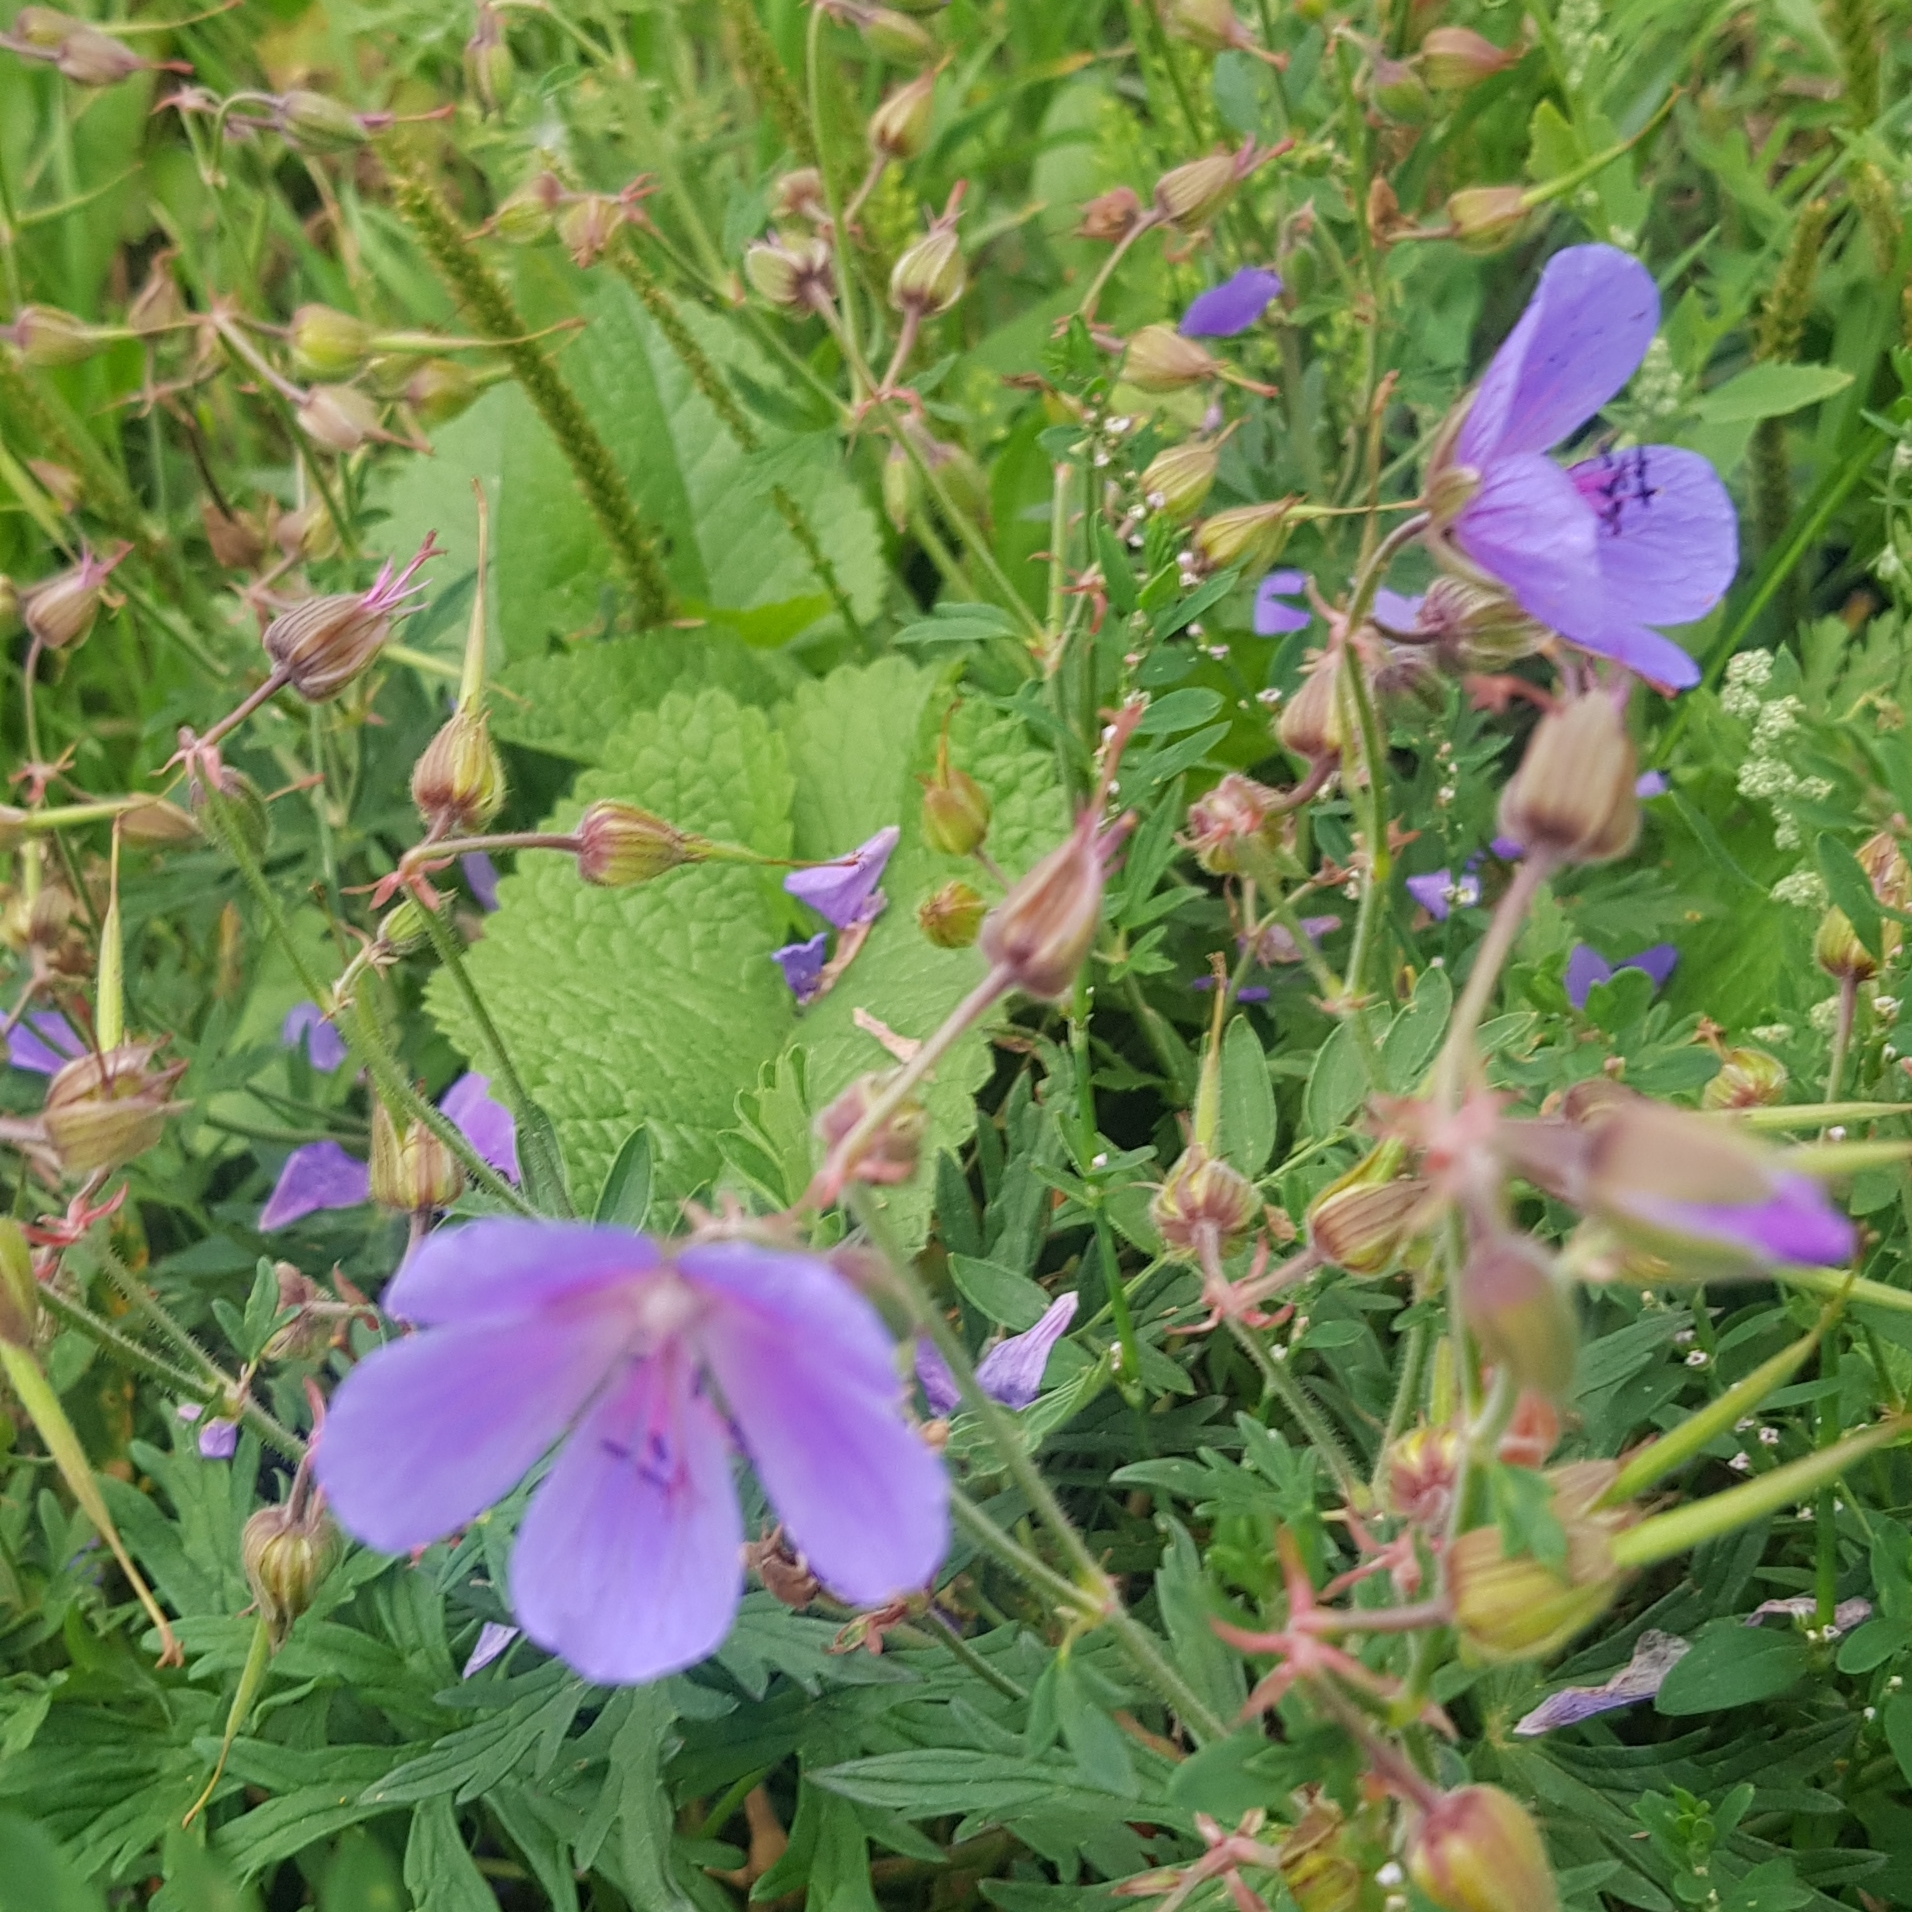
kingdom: Plantae
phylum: Tracheophyta
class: Magnoliopsida
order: Geraniales
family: Geraniaceae
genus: Geranium
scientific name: Geranium pratense
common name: Meadow crane's-bill
